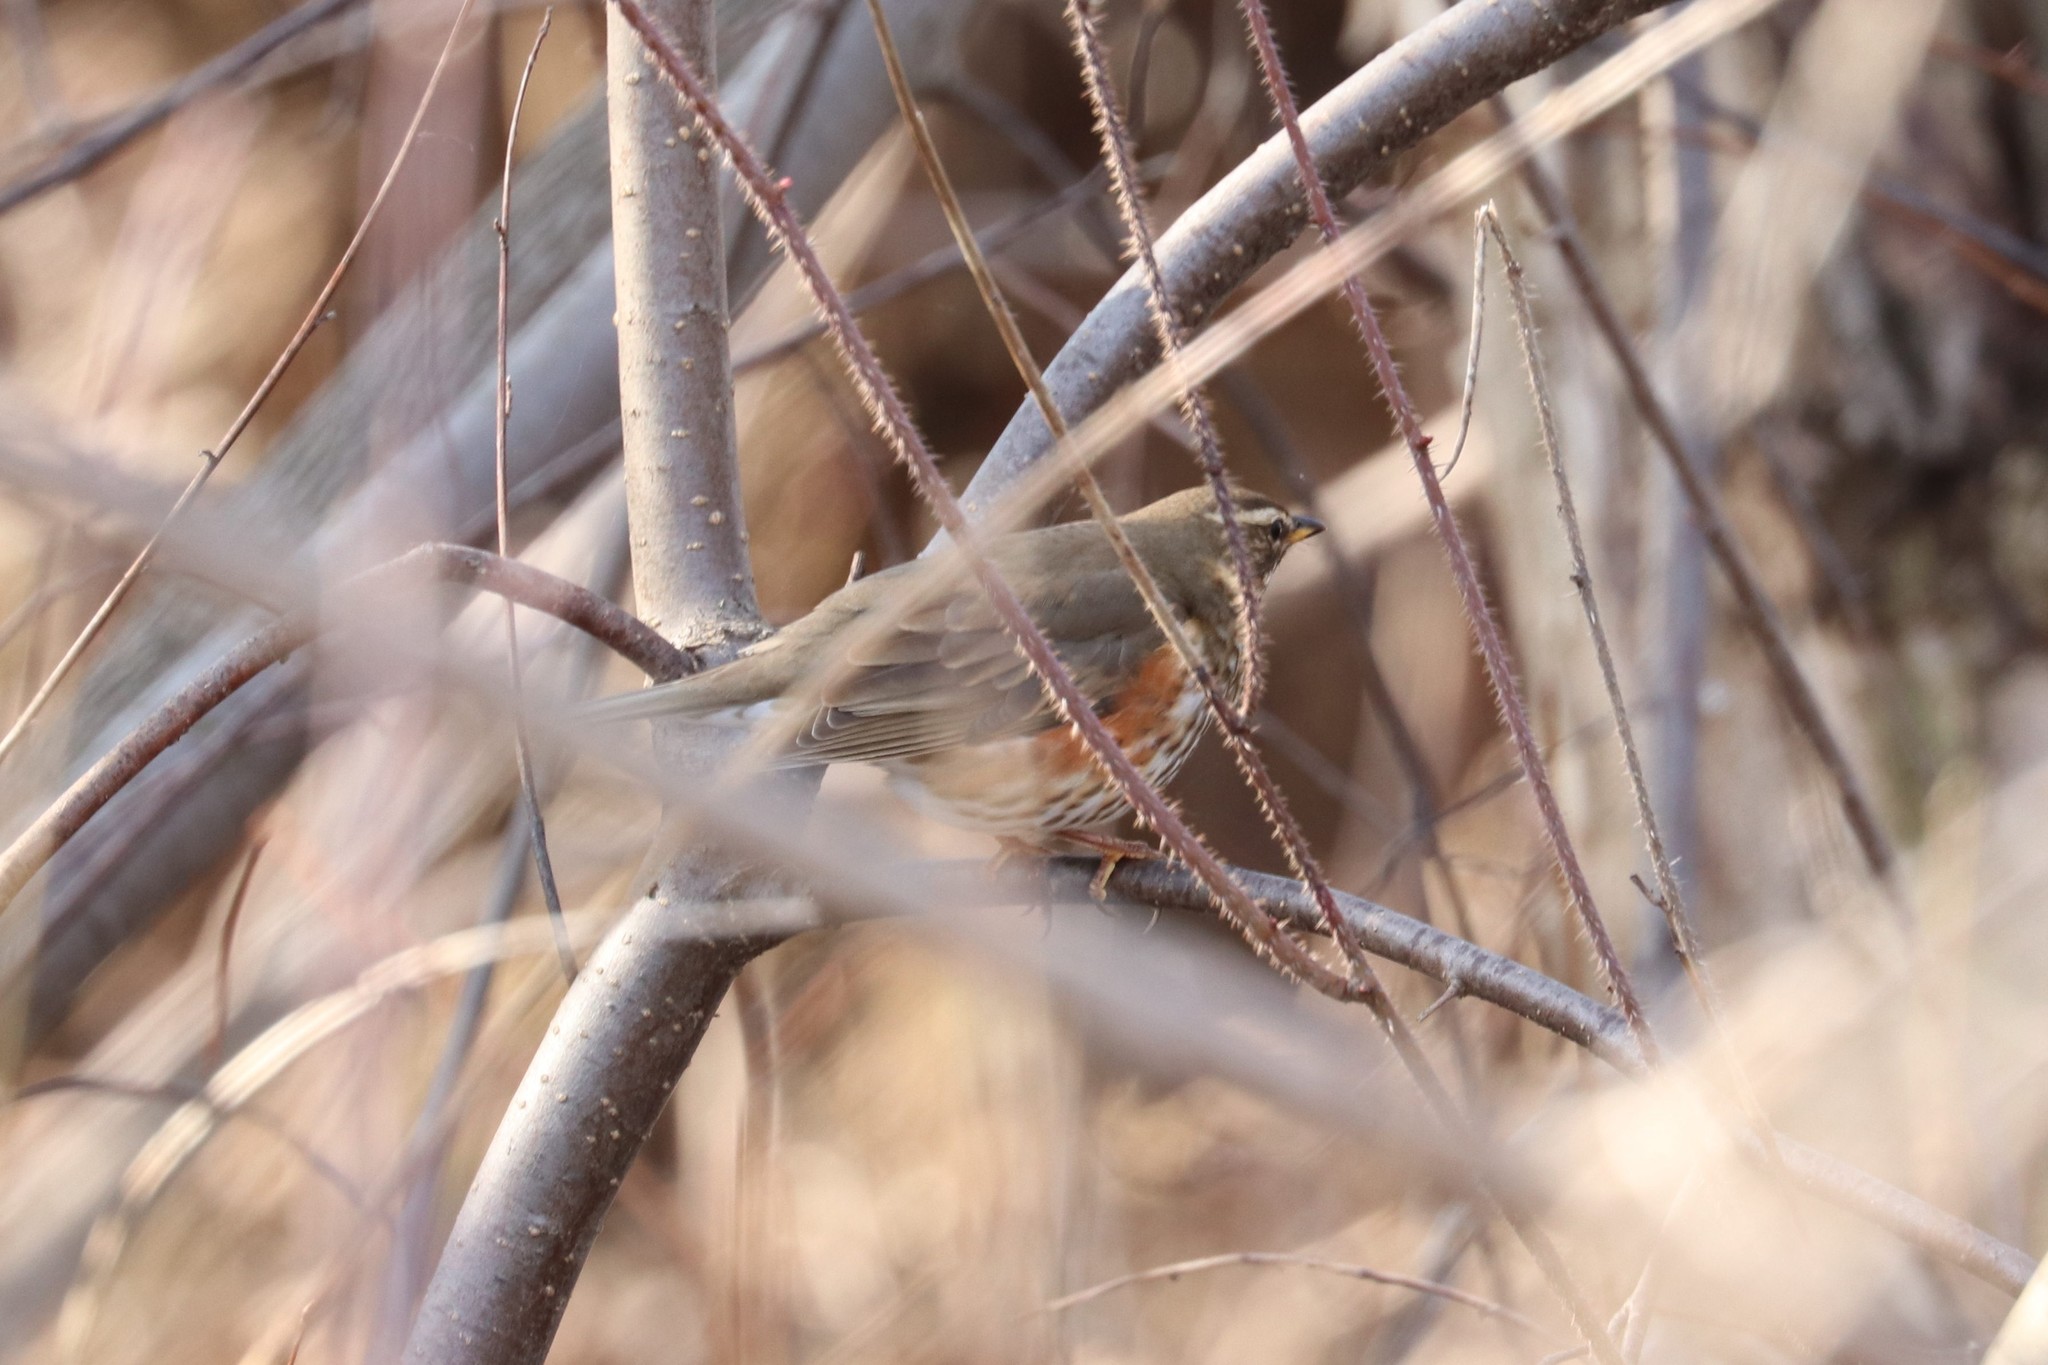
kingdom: Animalia
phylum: Chordata
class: Aves
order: Passeriformes
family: Turdidae
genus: Turdus
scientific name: Turdus iliacus
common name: Redwing
